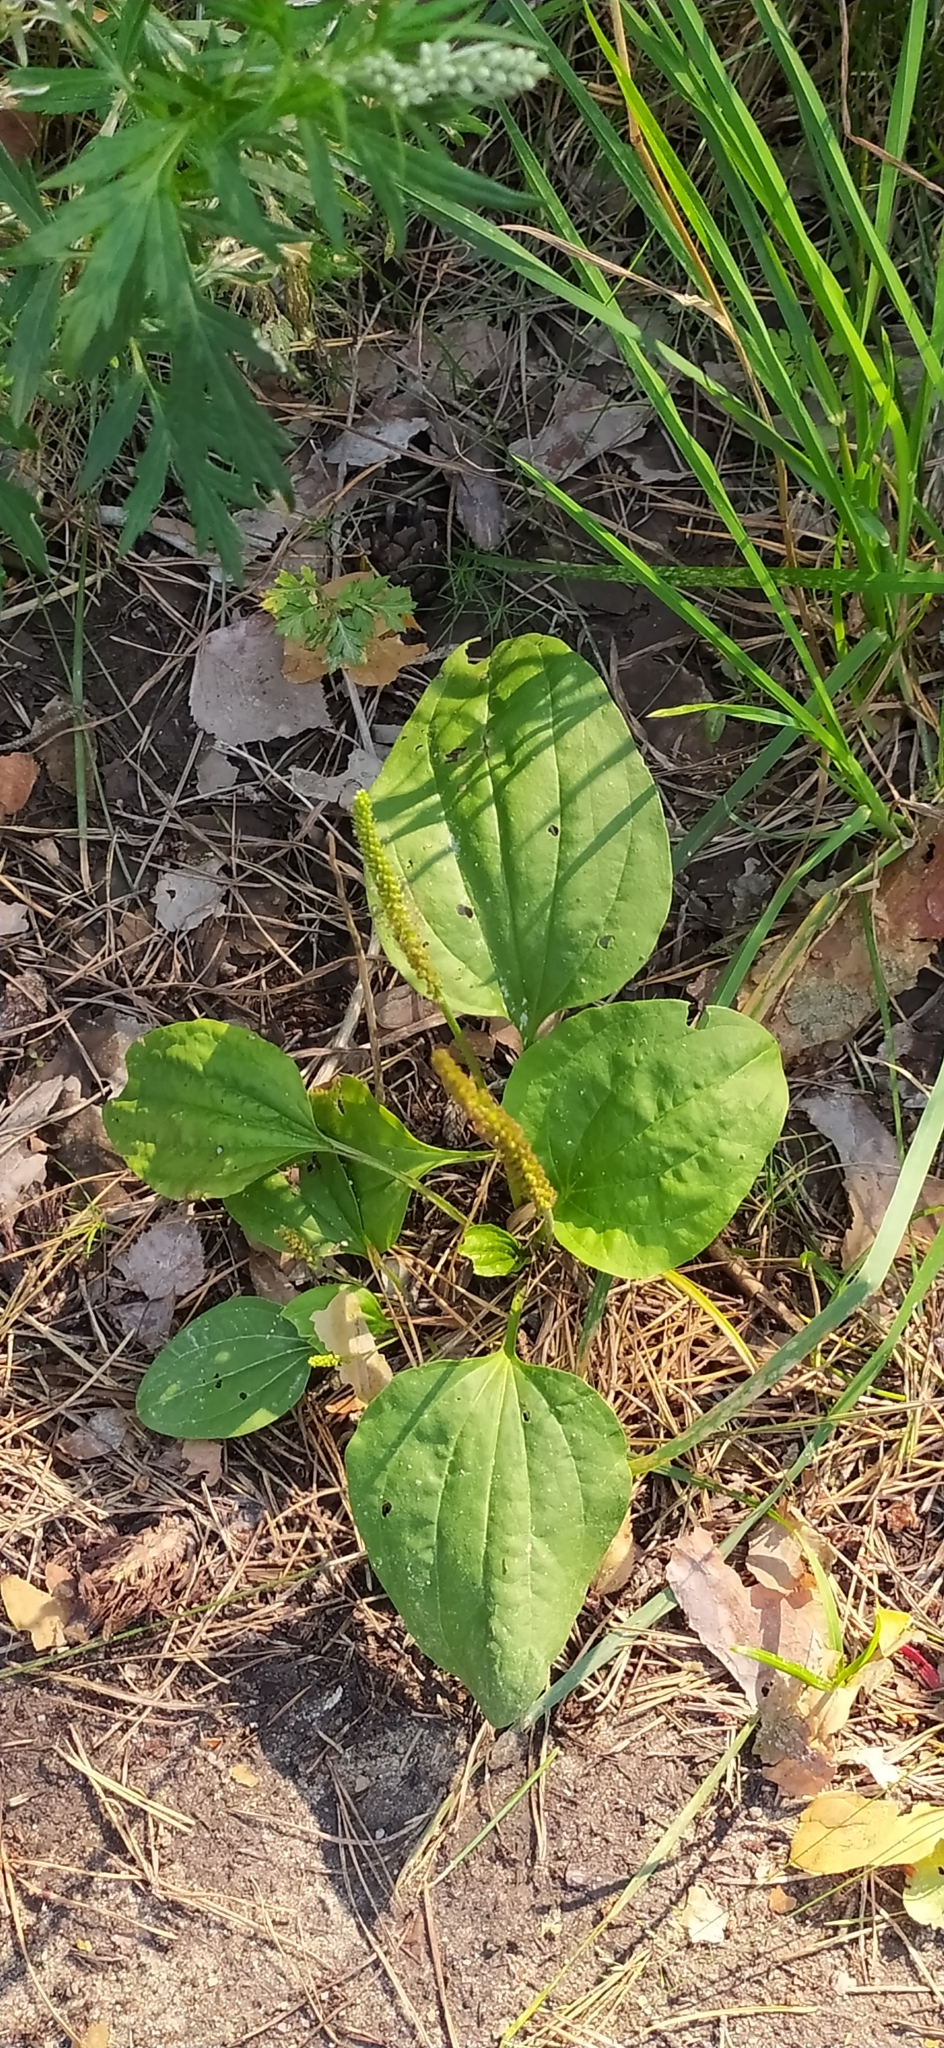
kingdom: Plantae
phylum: Tracheophyta
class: Magnoliopsida
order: Lamiales
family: Plantaginaceae
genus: Plantago
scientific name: Plantago major
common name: Common plantain
